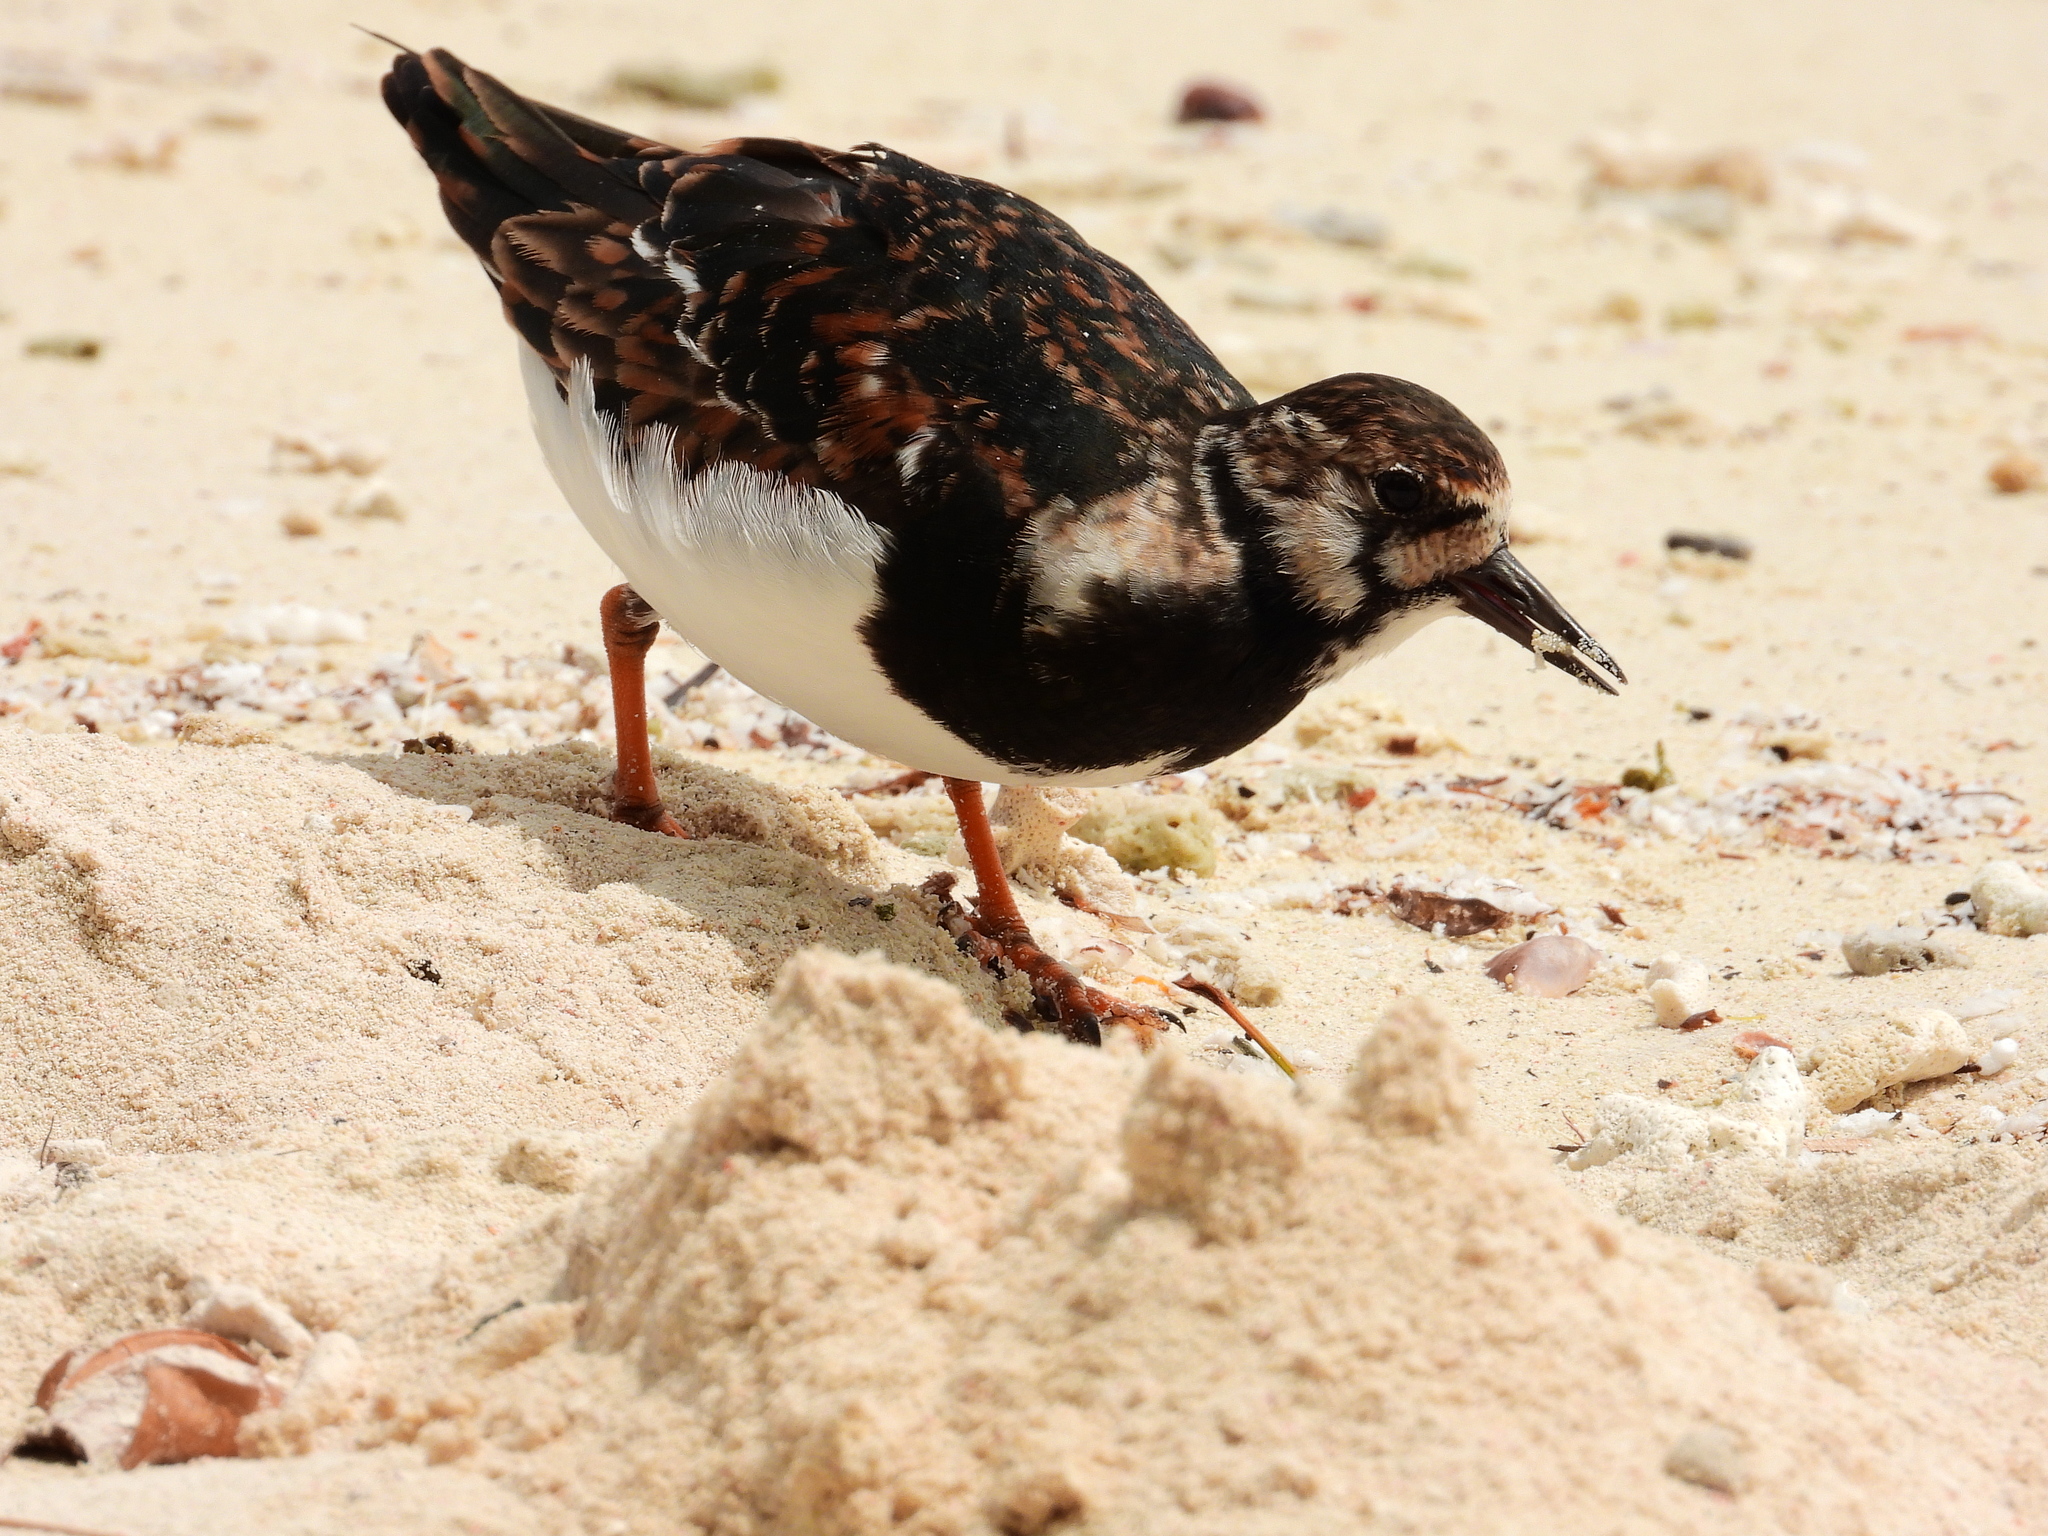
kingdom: Animalia
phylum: Chordata
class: Aves
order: Charadriiformes
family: Scolopacidae
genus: Arenaria
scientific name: Arenaria interpres
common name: Ruddy turnstone
